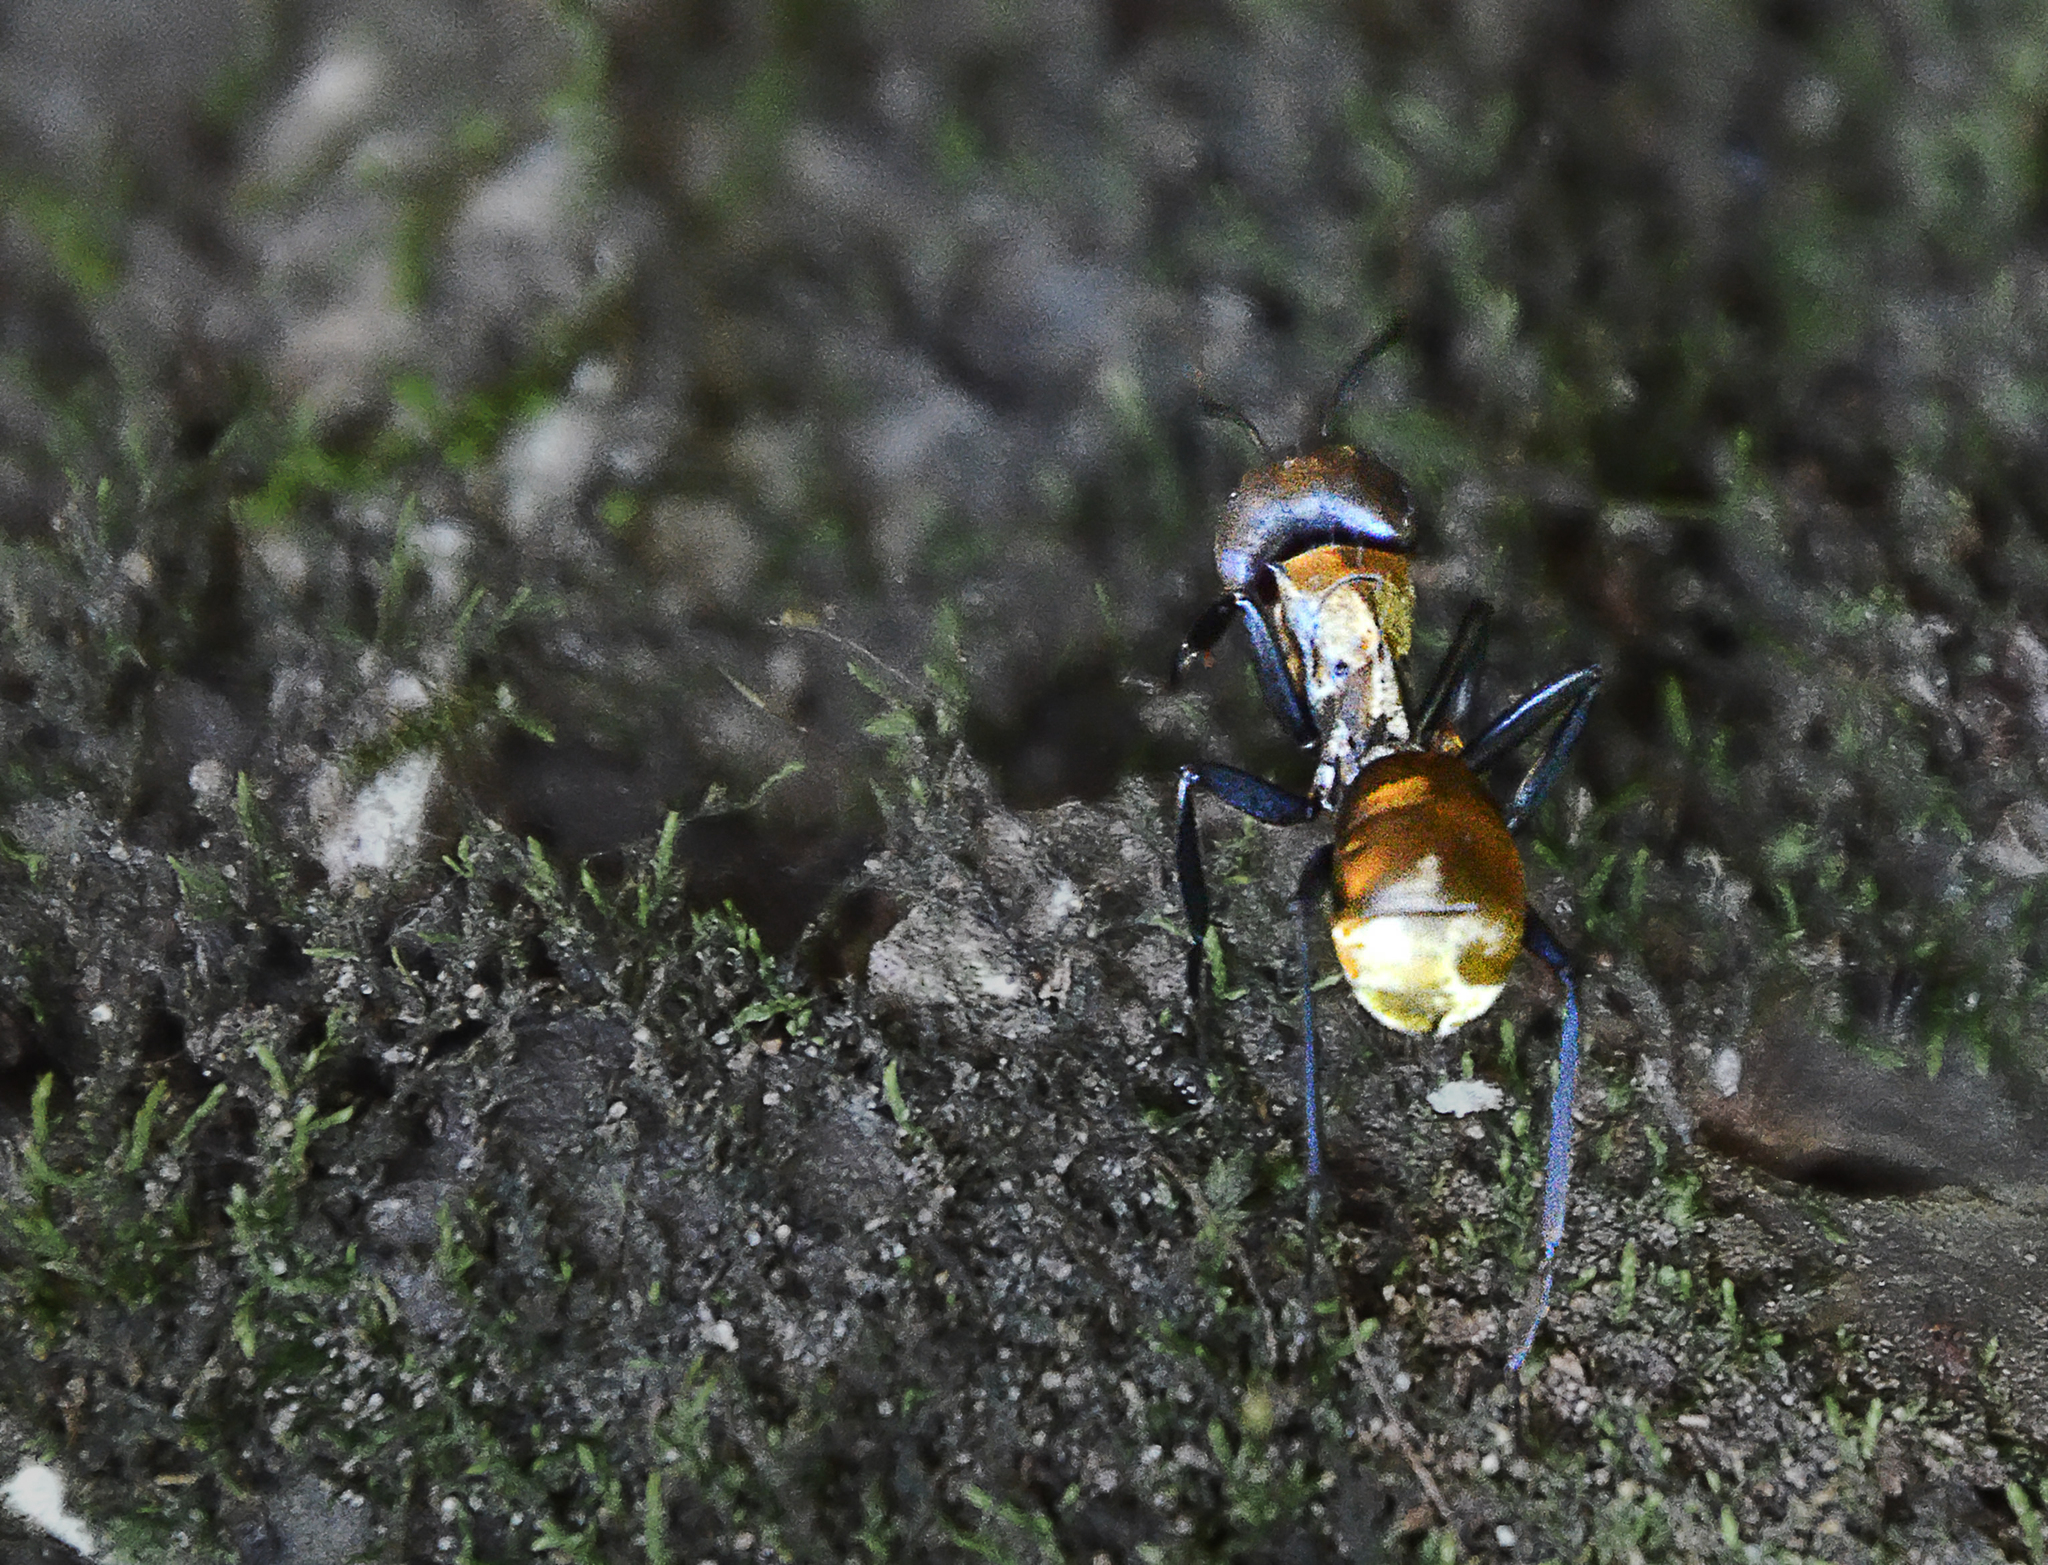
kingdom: Animalia
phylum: Arthropoda
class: Insecta
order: Hymenoptera
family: Formicidae
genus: Camponotus
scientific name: Camponotus sericeiventris
